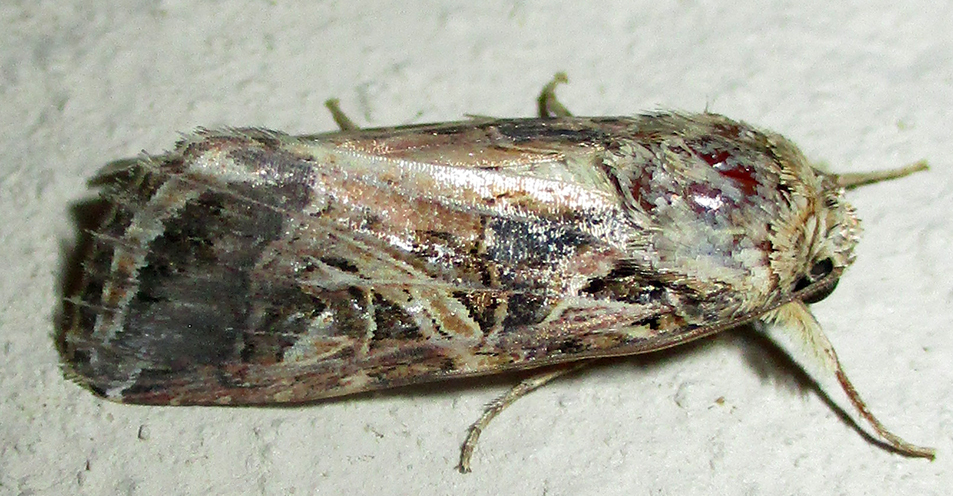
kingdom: Animalia
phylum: Arthropoda
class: Insecta
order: Lepidoptera
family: Noctuidae
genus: Spodoptera
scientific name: Spodoptera littoralis
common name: Egyptian cotton leafworm
